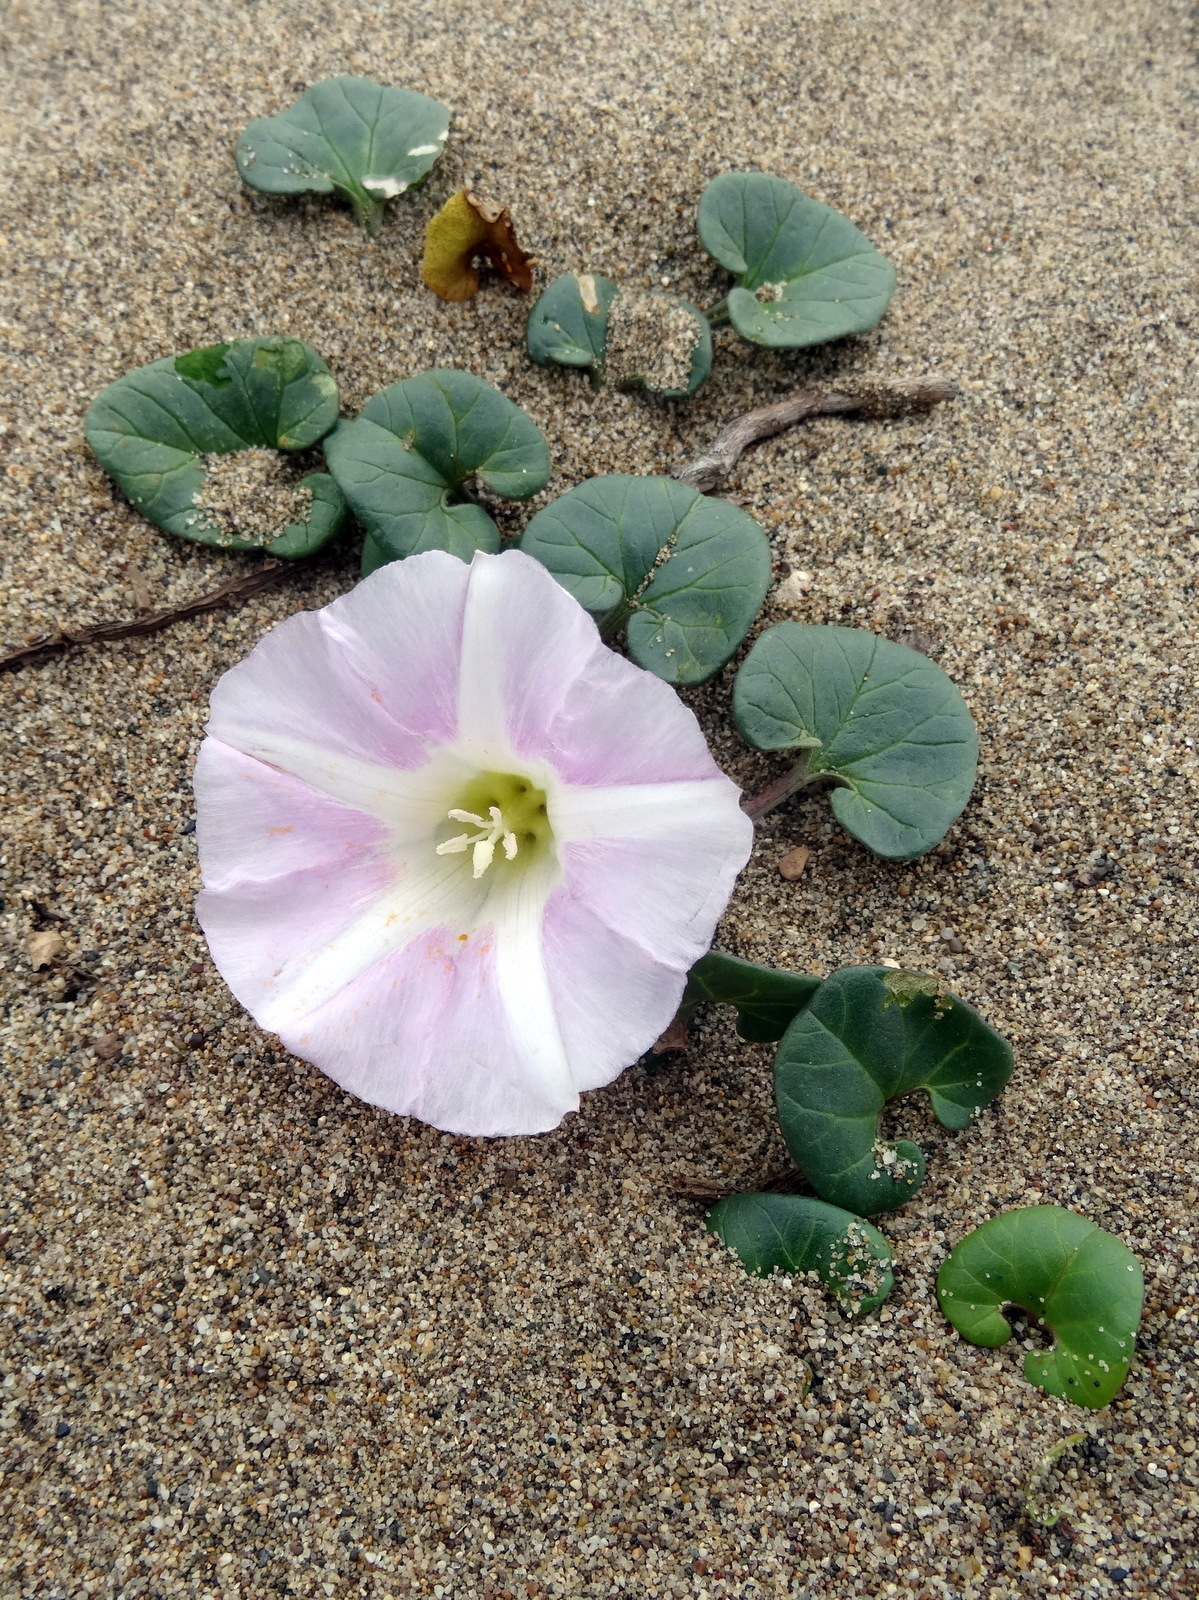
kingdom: Plantae
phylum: Tracheophyta
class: Magnoliopsida
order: Solanales
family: Convolvulaceae
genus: Calystegia
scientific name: Calystegia soldanella
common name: Sea bindweed
